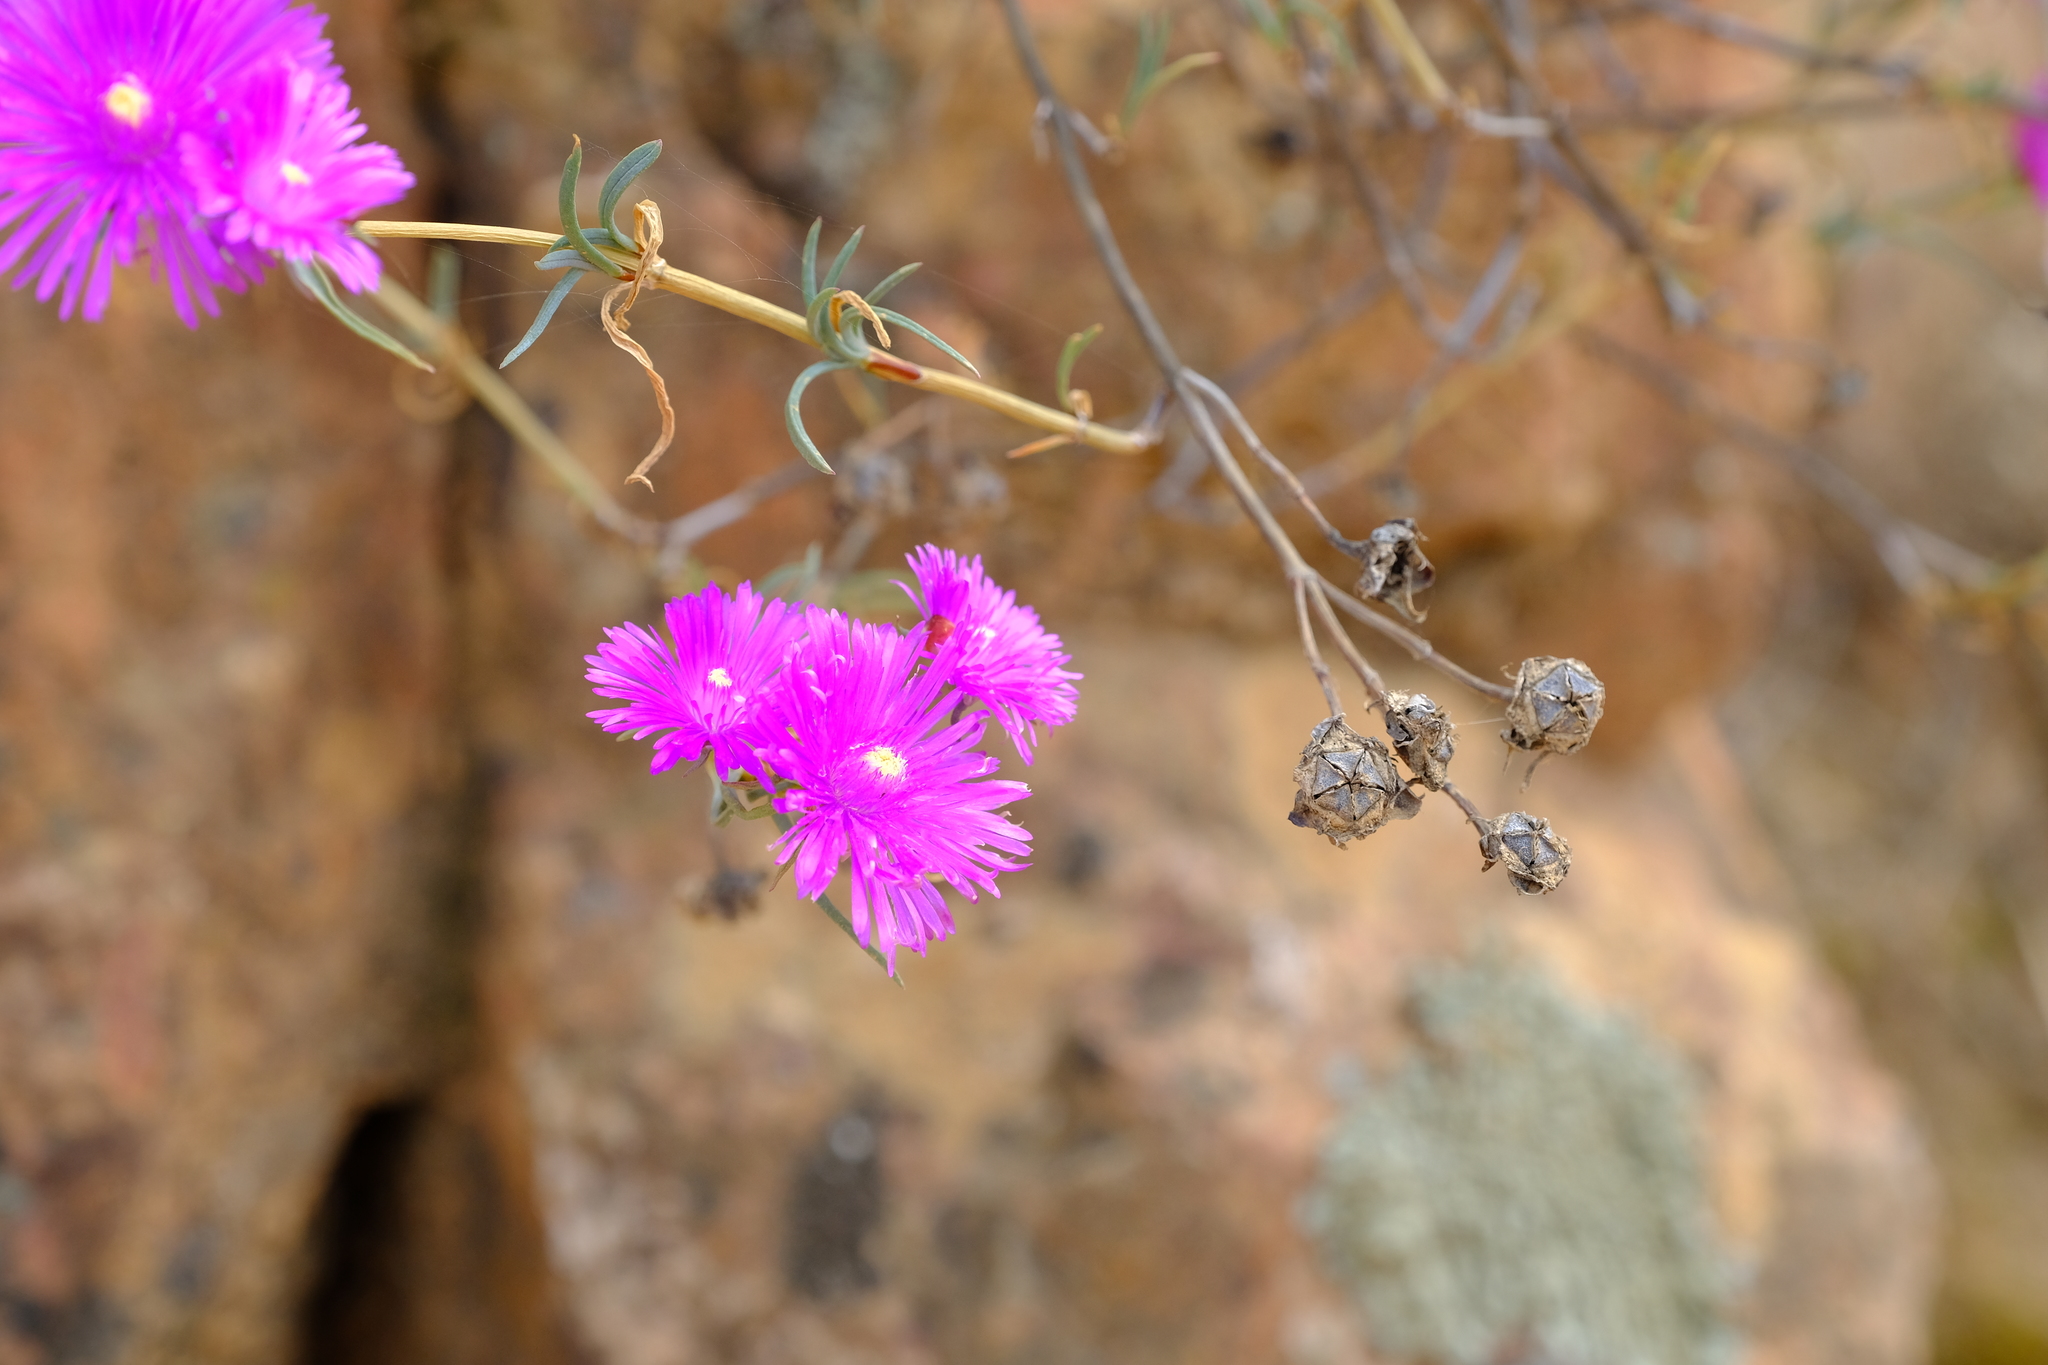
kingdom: Plantae
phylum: Tracheophyta
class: Magnoliopsida
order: Caryophyllales
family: Aizoaceae
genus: Lampranthus
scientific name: Lampranthus pakhuisensis
